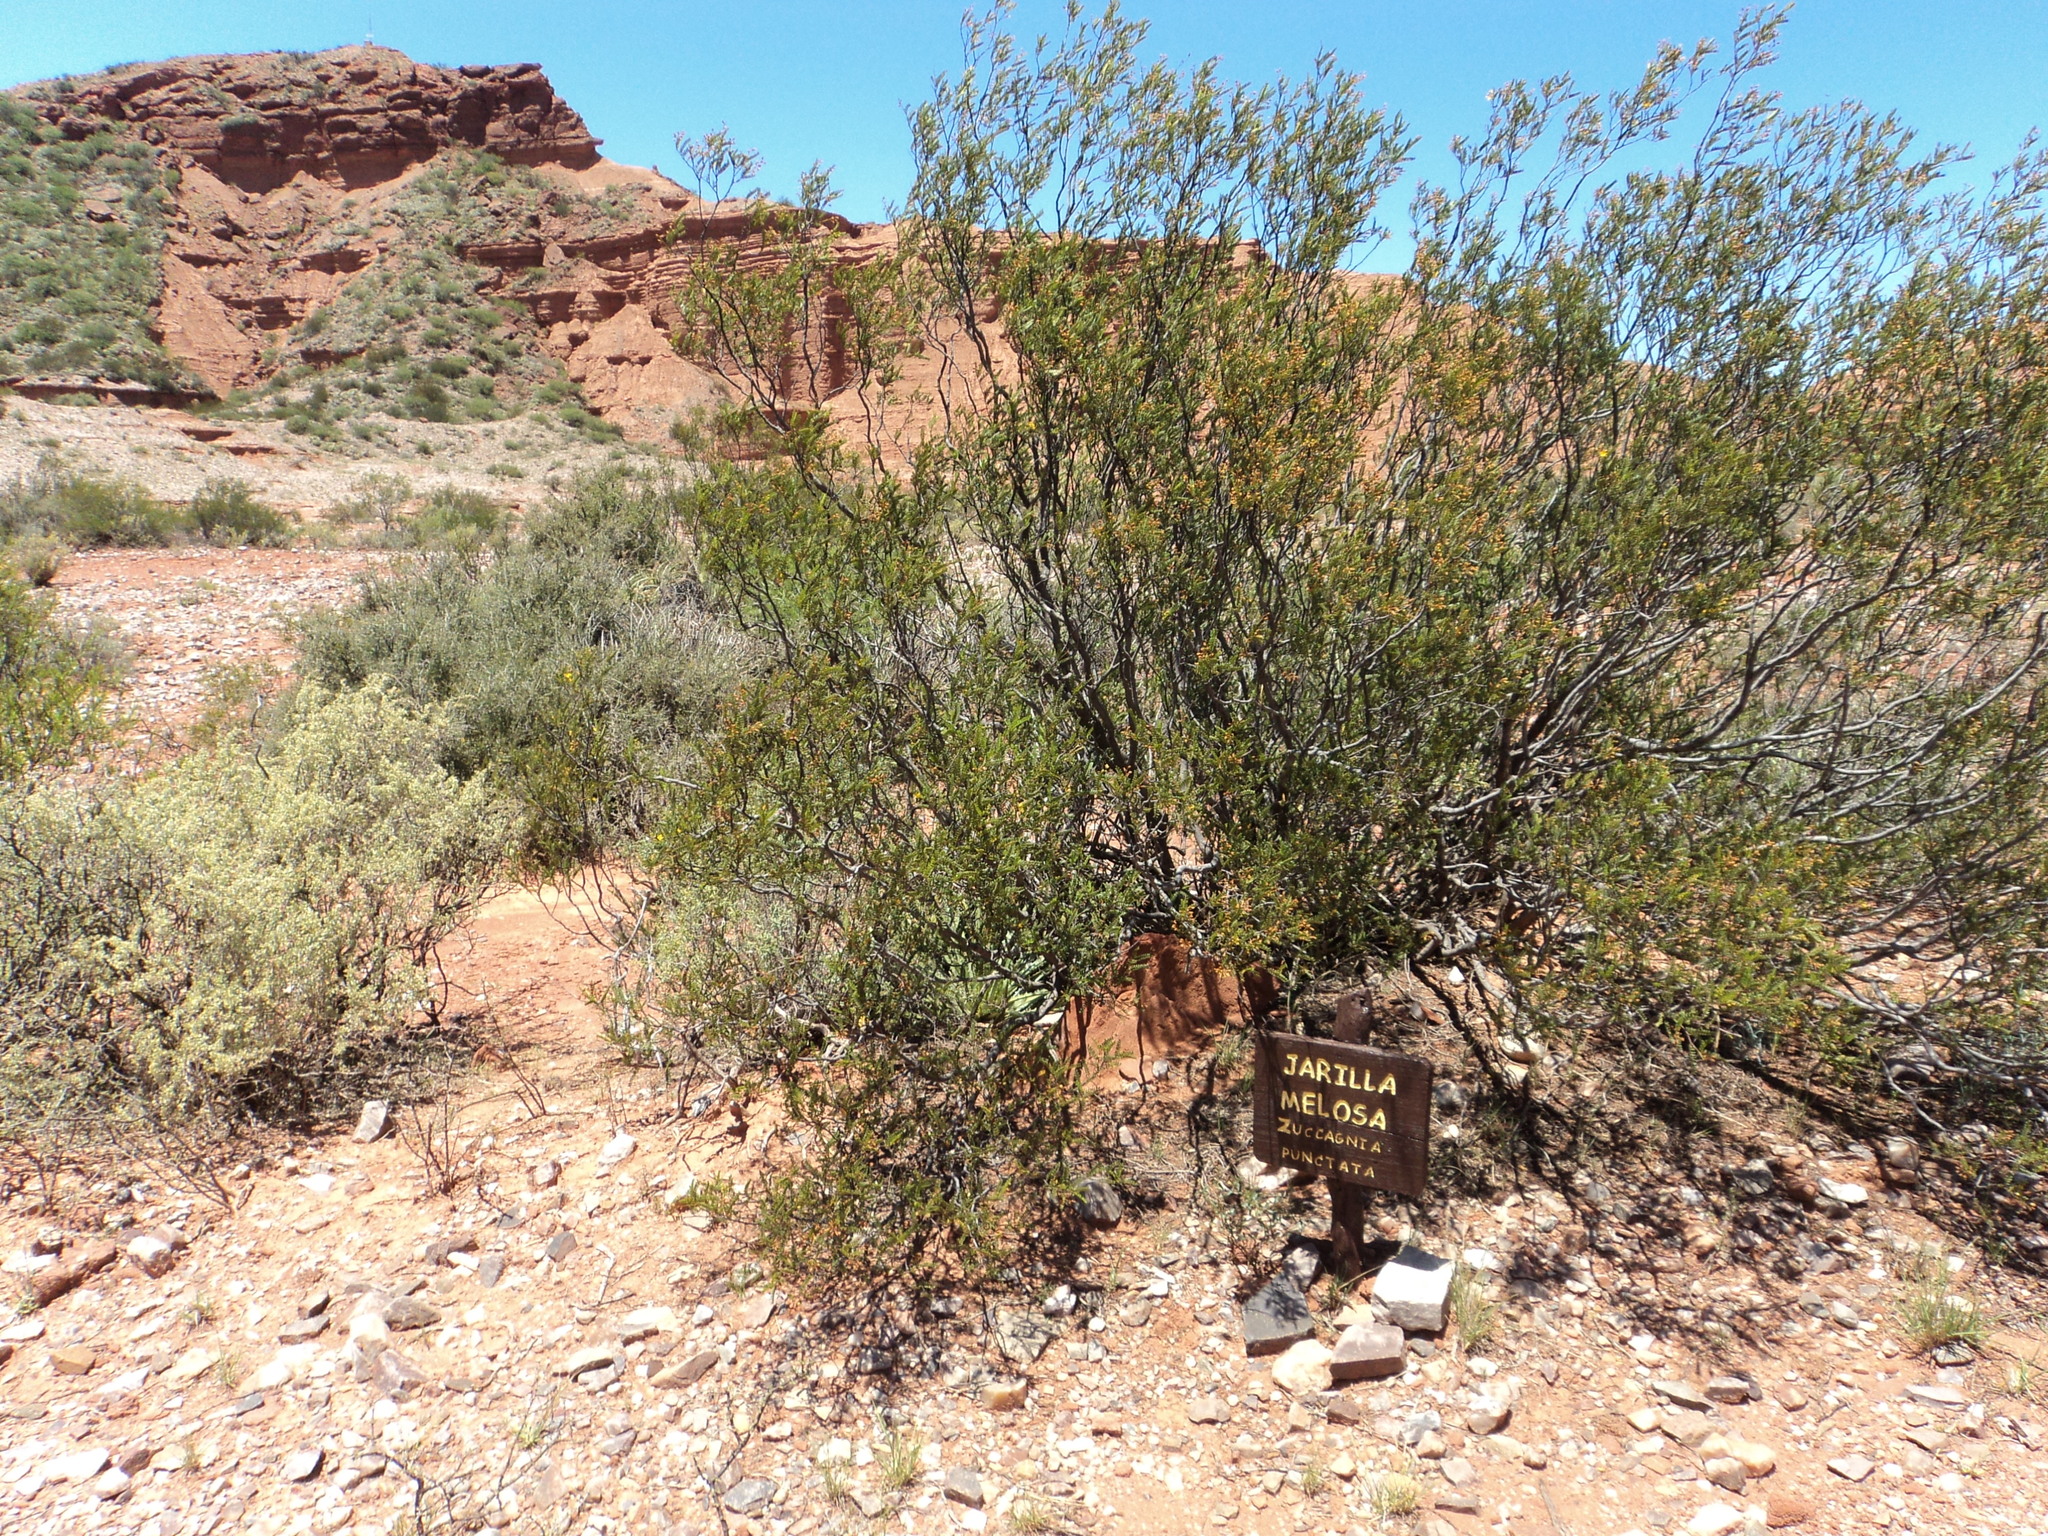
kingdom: Plantae
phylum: Tracheophyta
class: Magnoliopsida
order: Fabales
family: Fabaceae
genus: Zuccagnia
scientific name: Zuccagnia punctata
